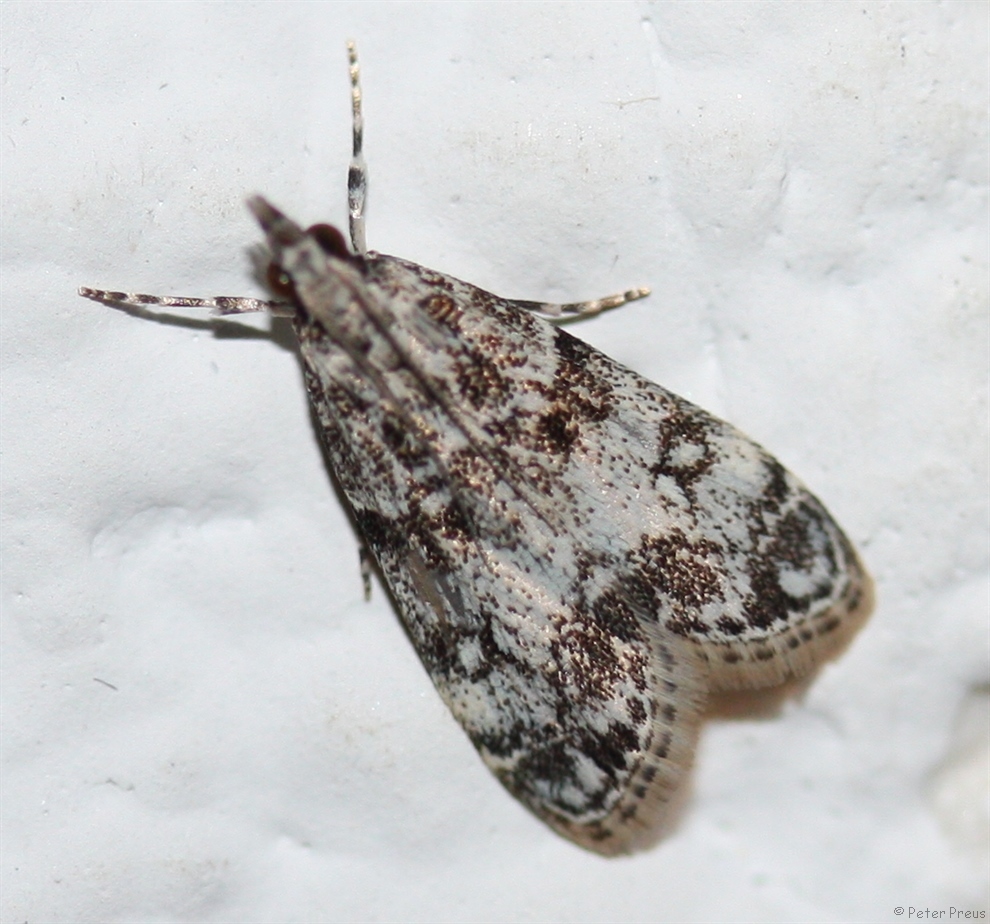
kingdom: Animalia
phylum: Arthropoda
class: Insecta
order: Lepidoptera
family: Crambidae
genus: Eudonia
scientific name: Eudonia lacustrata
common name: Little grey
